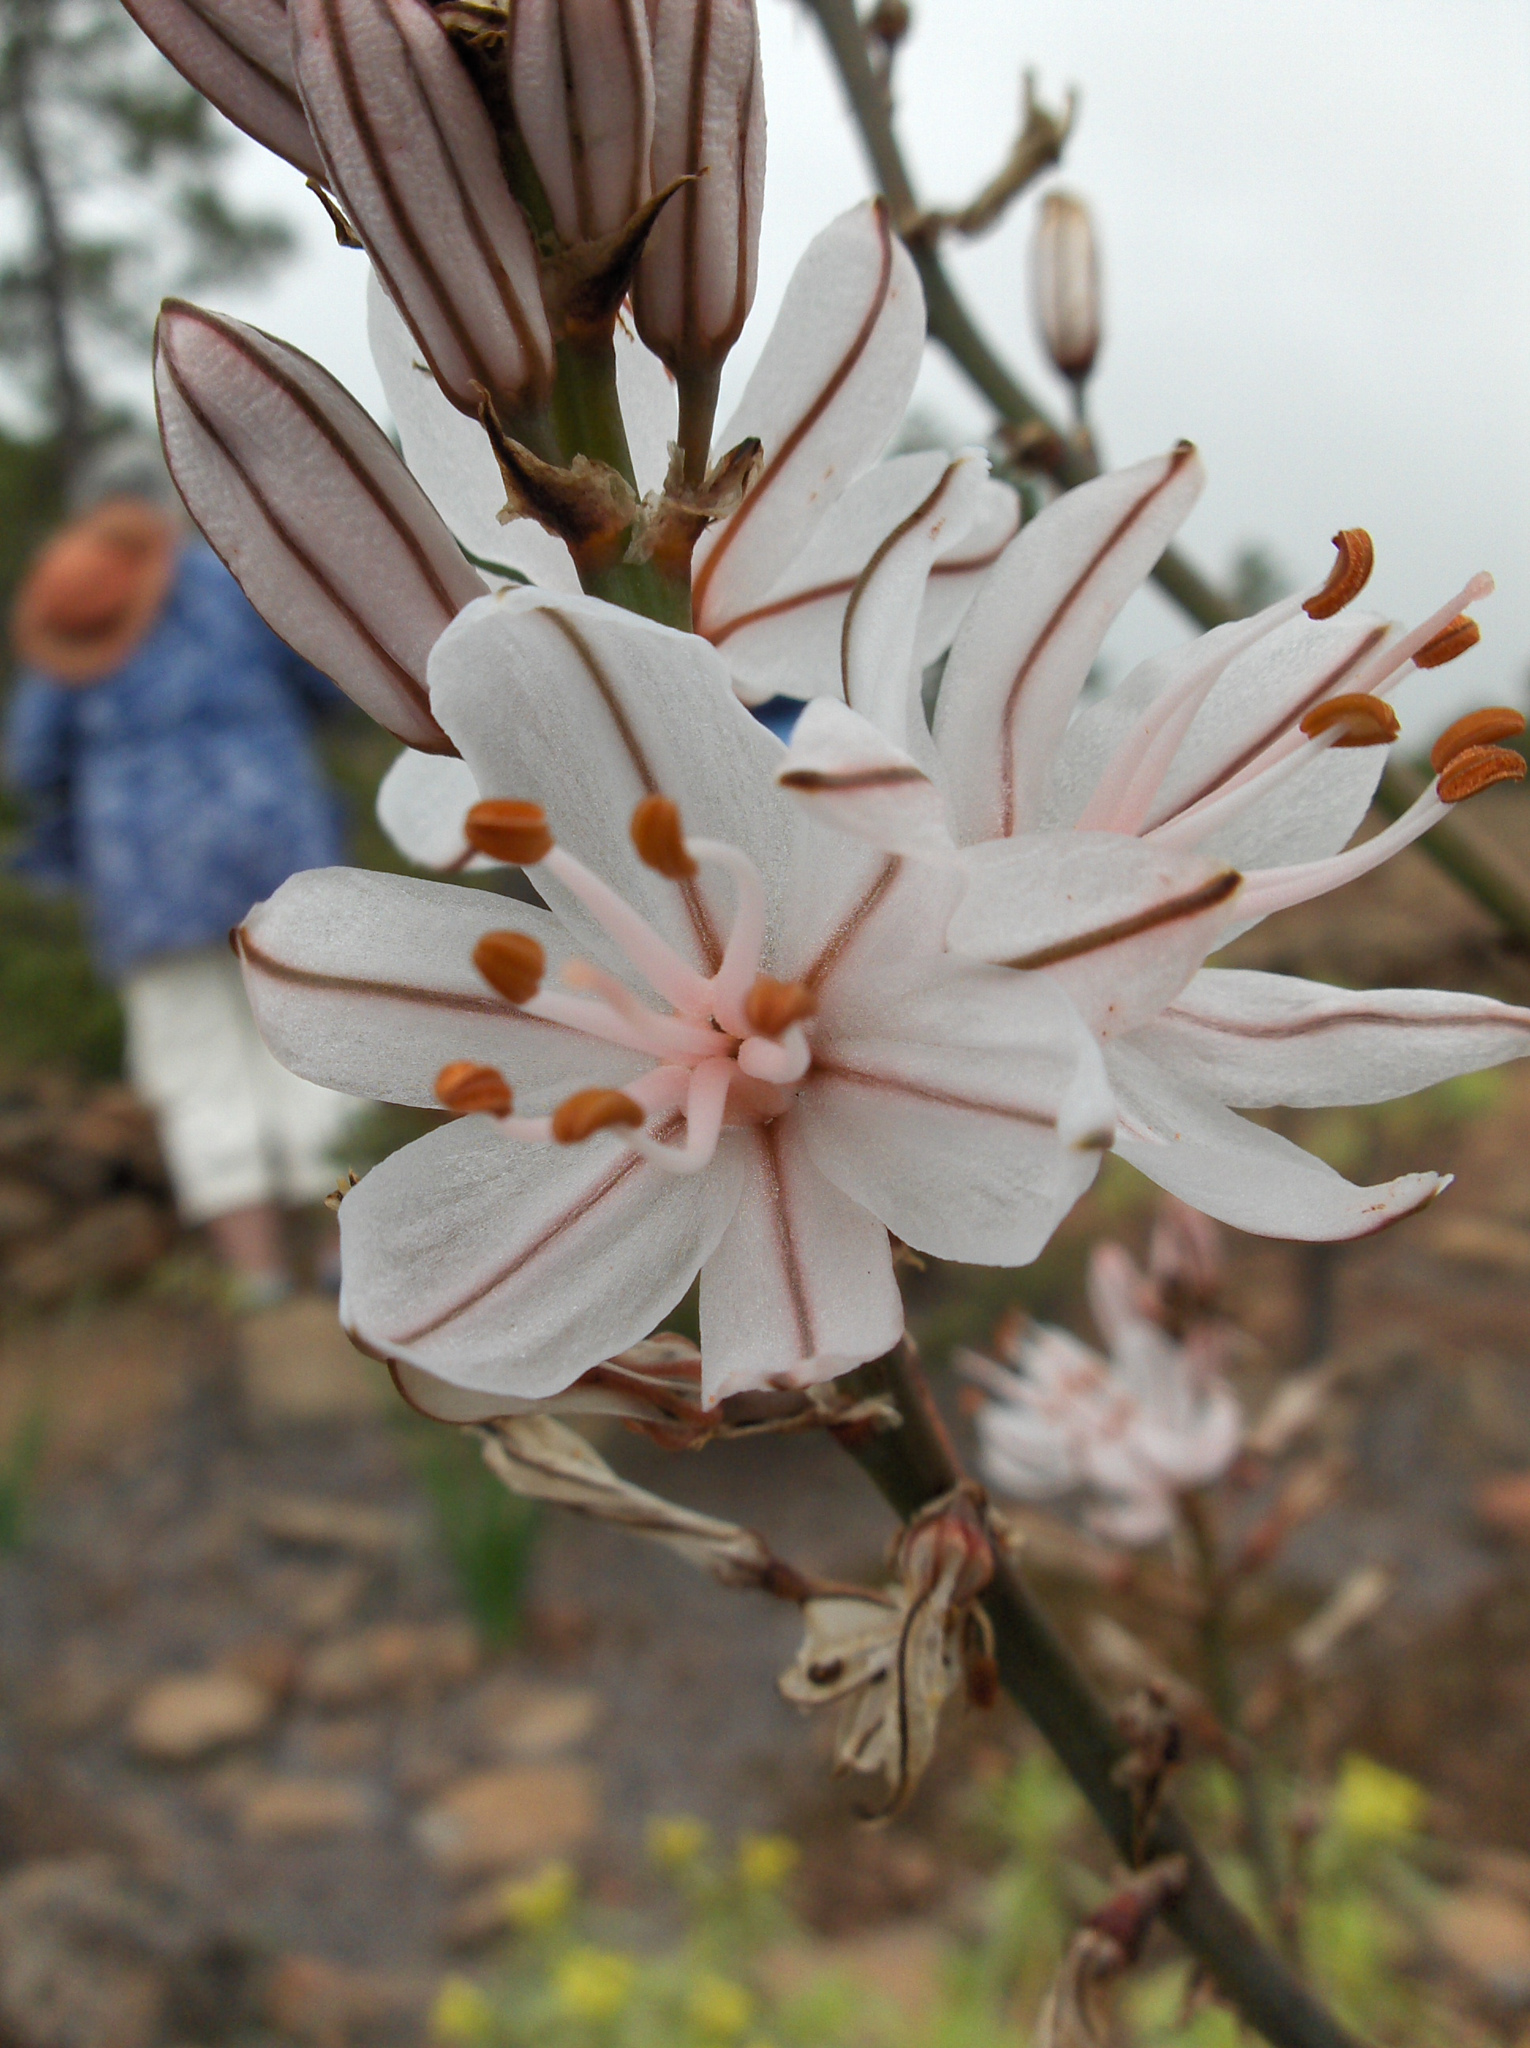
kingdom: Plantae
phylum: Tracheophyta
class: Liliopsida
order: Asparagales
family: Asphodelaceae
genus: Asphodelus
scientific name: Asphodelus ramosus
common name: Silverrod
